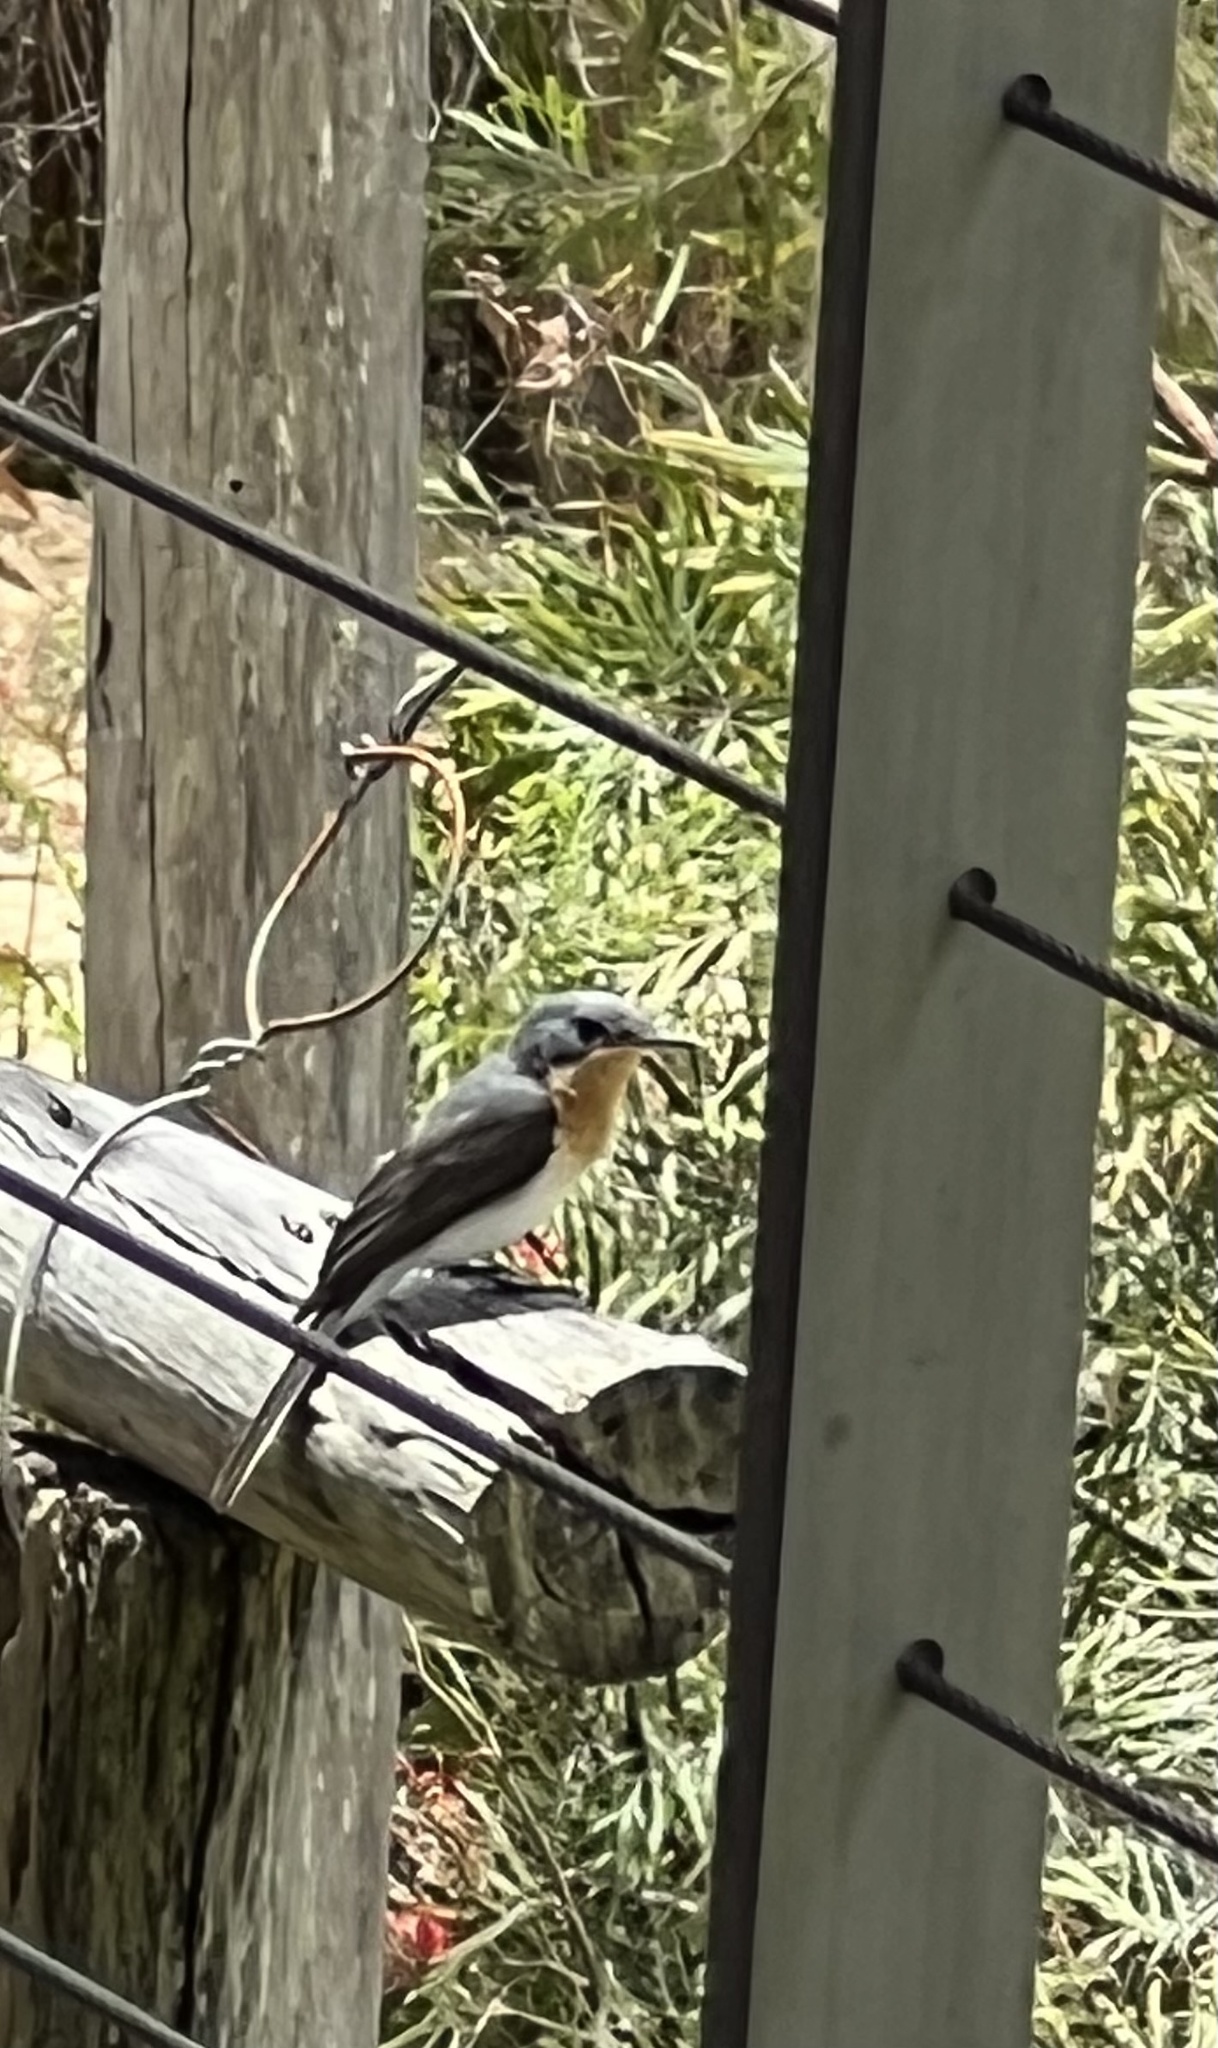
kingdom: Animalia
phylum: Chordata
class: Aves
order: Passeriformes
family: Monarchidae
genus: Myiagra
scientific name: Myiagra cyanoleuca
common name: Satin flycatcher
